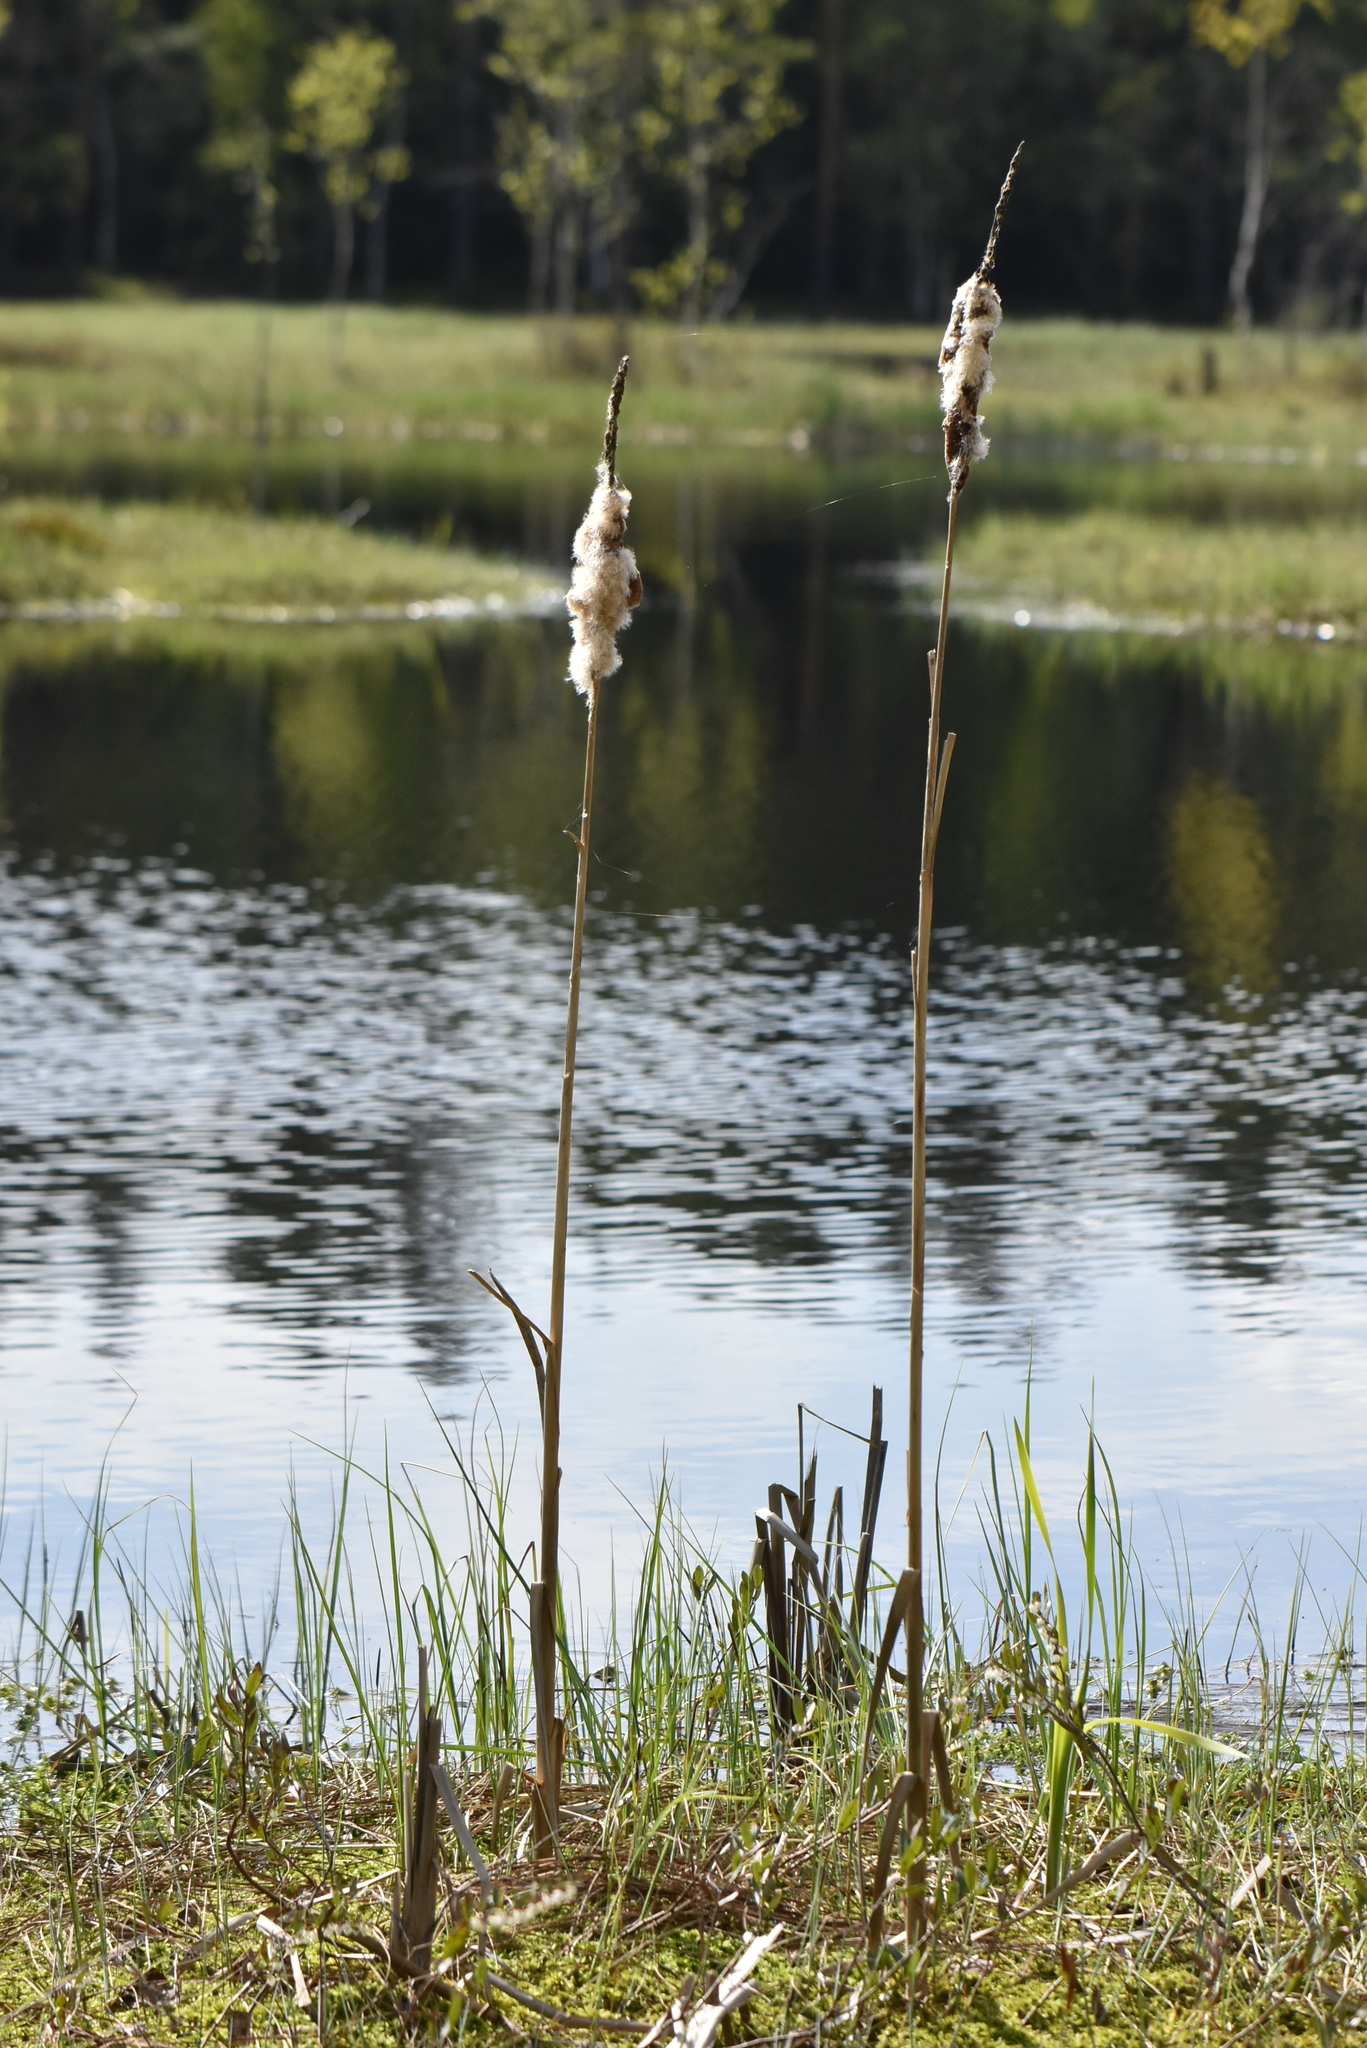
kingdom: Plantae
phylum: Tracheophyta
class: Liliopsida
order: Poales
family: Typhaceae
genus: Typha
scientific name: Typha latifolia
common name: Broadleaf cattail
